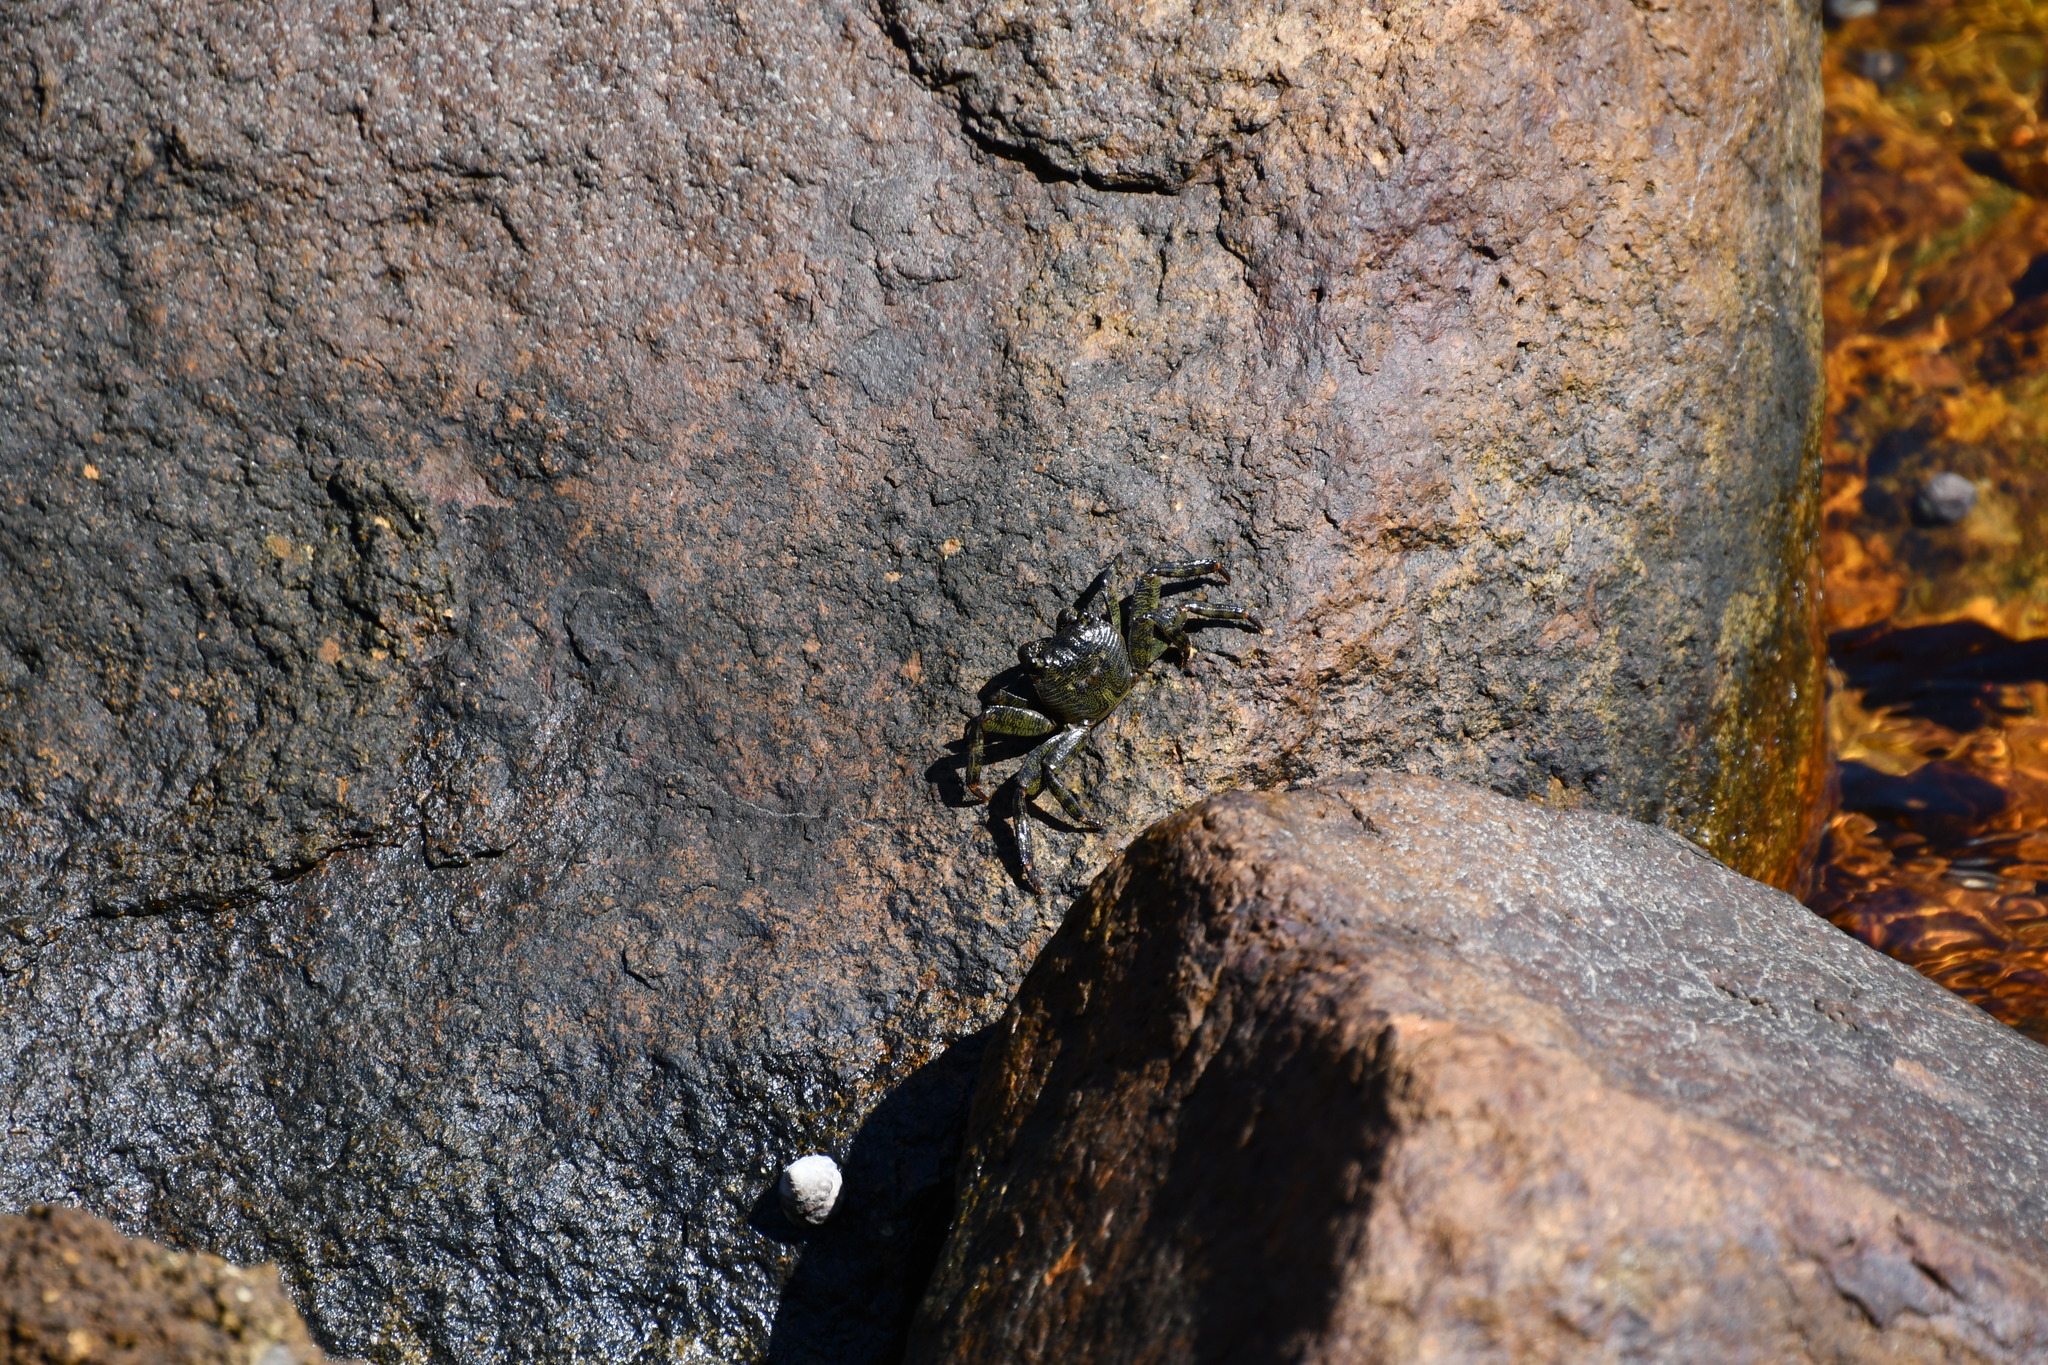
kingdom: Animalia
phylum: Arthropoda
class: Malacostraca
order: Decapoda
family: Grapsidae
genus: Leptograpsus
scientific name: Leptograpsus variegatus
